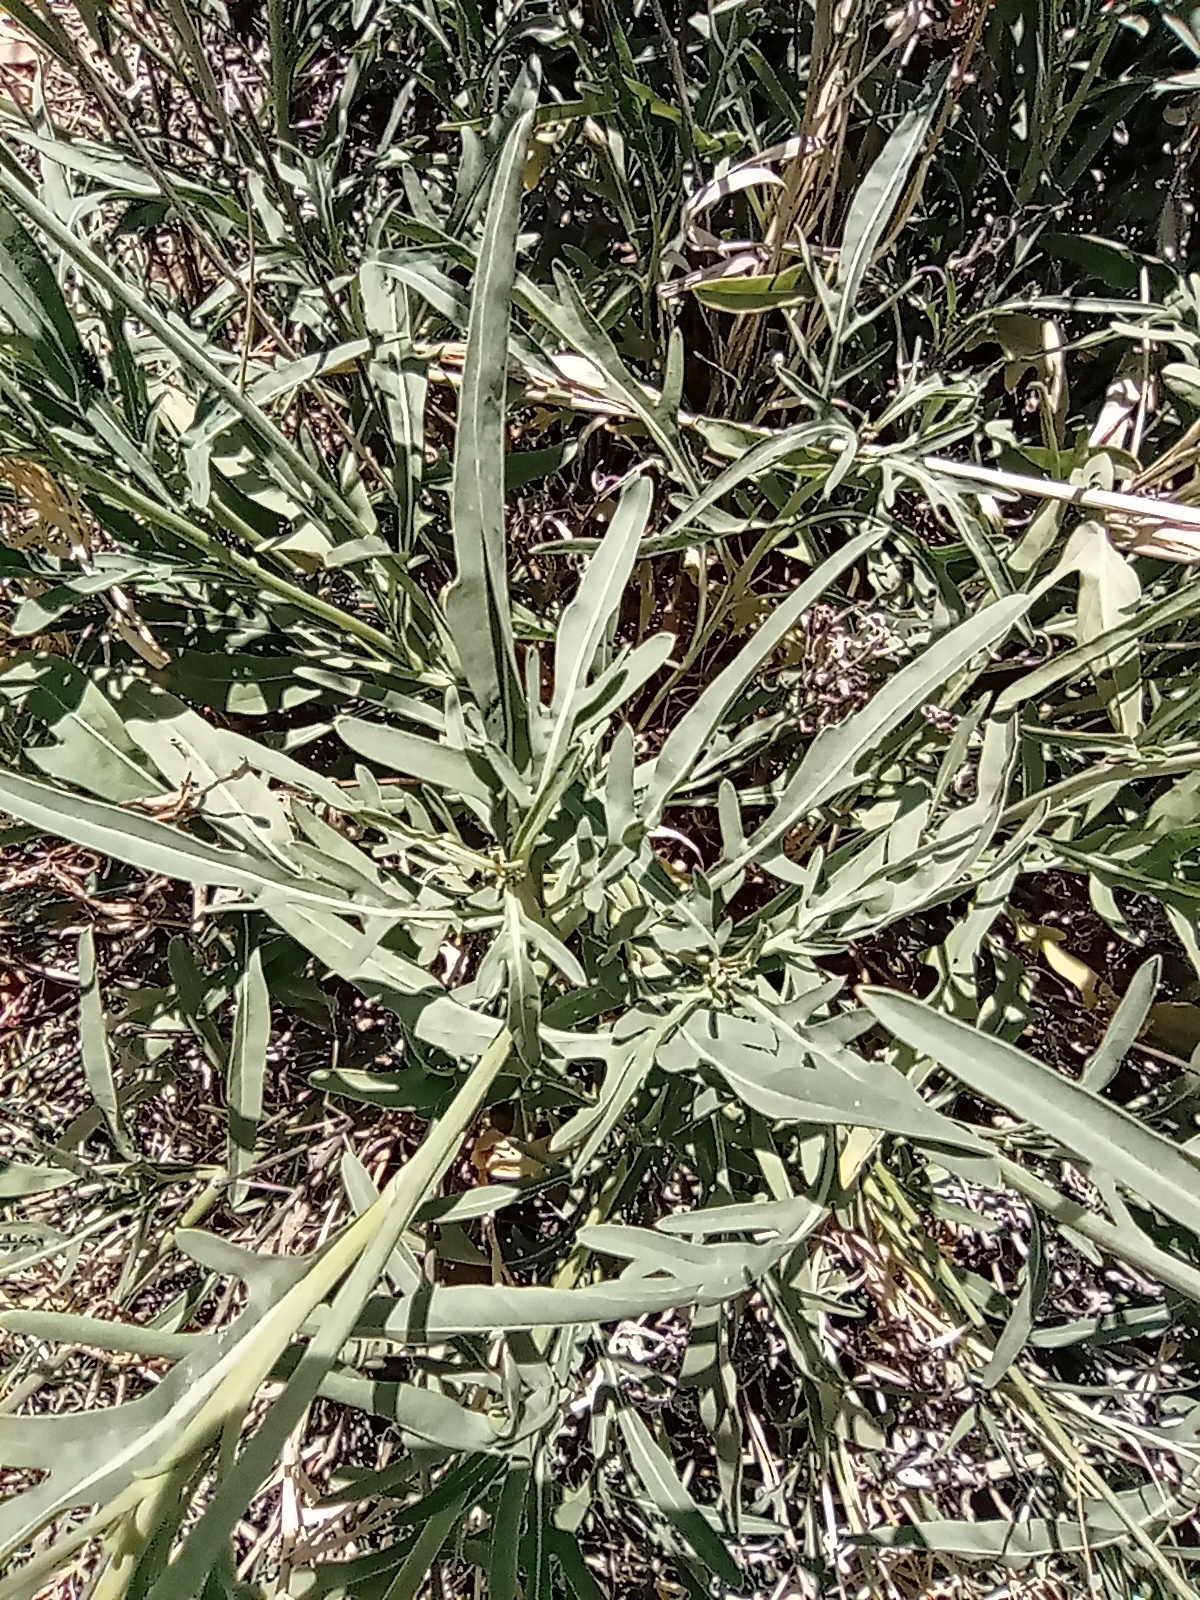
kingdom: Plantae
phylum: Tracheophyta
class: Magnoliopsida
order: Brassicales
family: Brassicaceae
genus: Diplotaxis
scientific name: Diplotaxis tenuifolia
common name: Perennial wall-rocket
